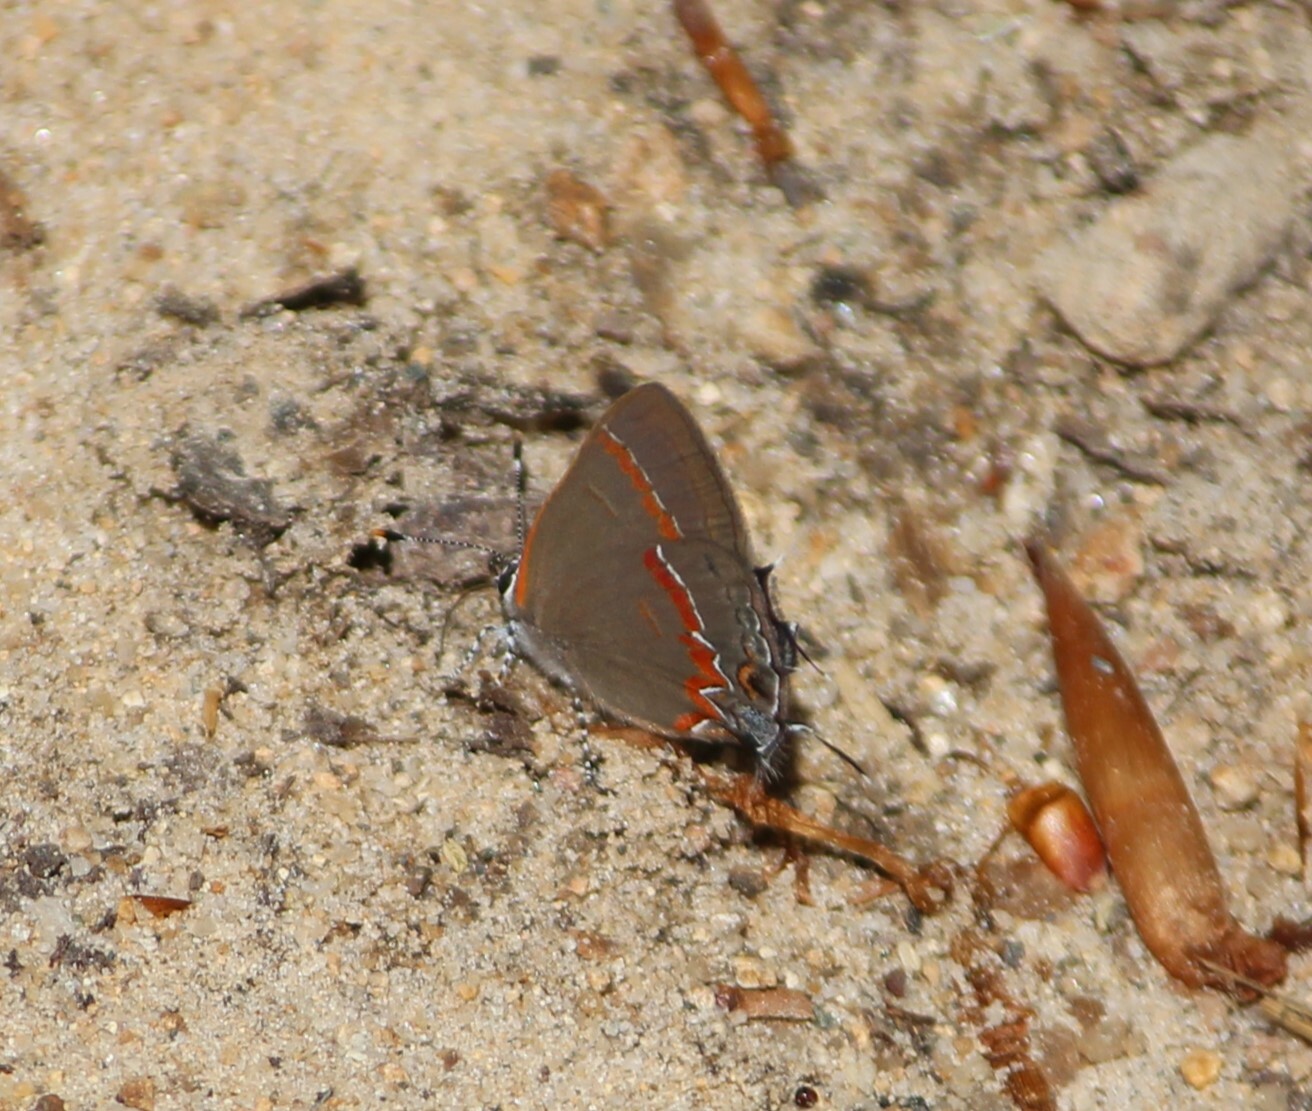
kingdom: Animalia
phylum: Arthropoda
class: Insecta
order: Lepidoptera
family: Lycaenidae
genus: Calycopis
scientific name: Calycopis cecrops
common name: Red-banded hairstreak
